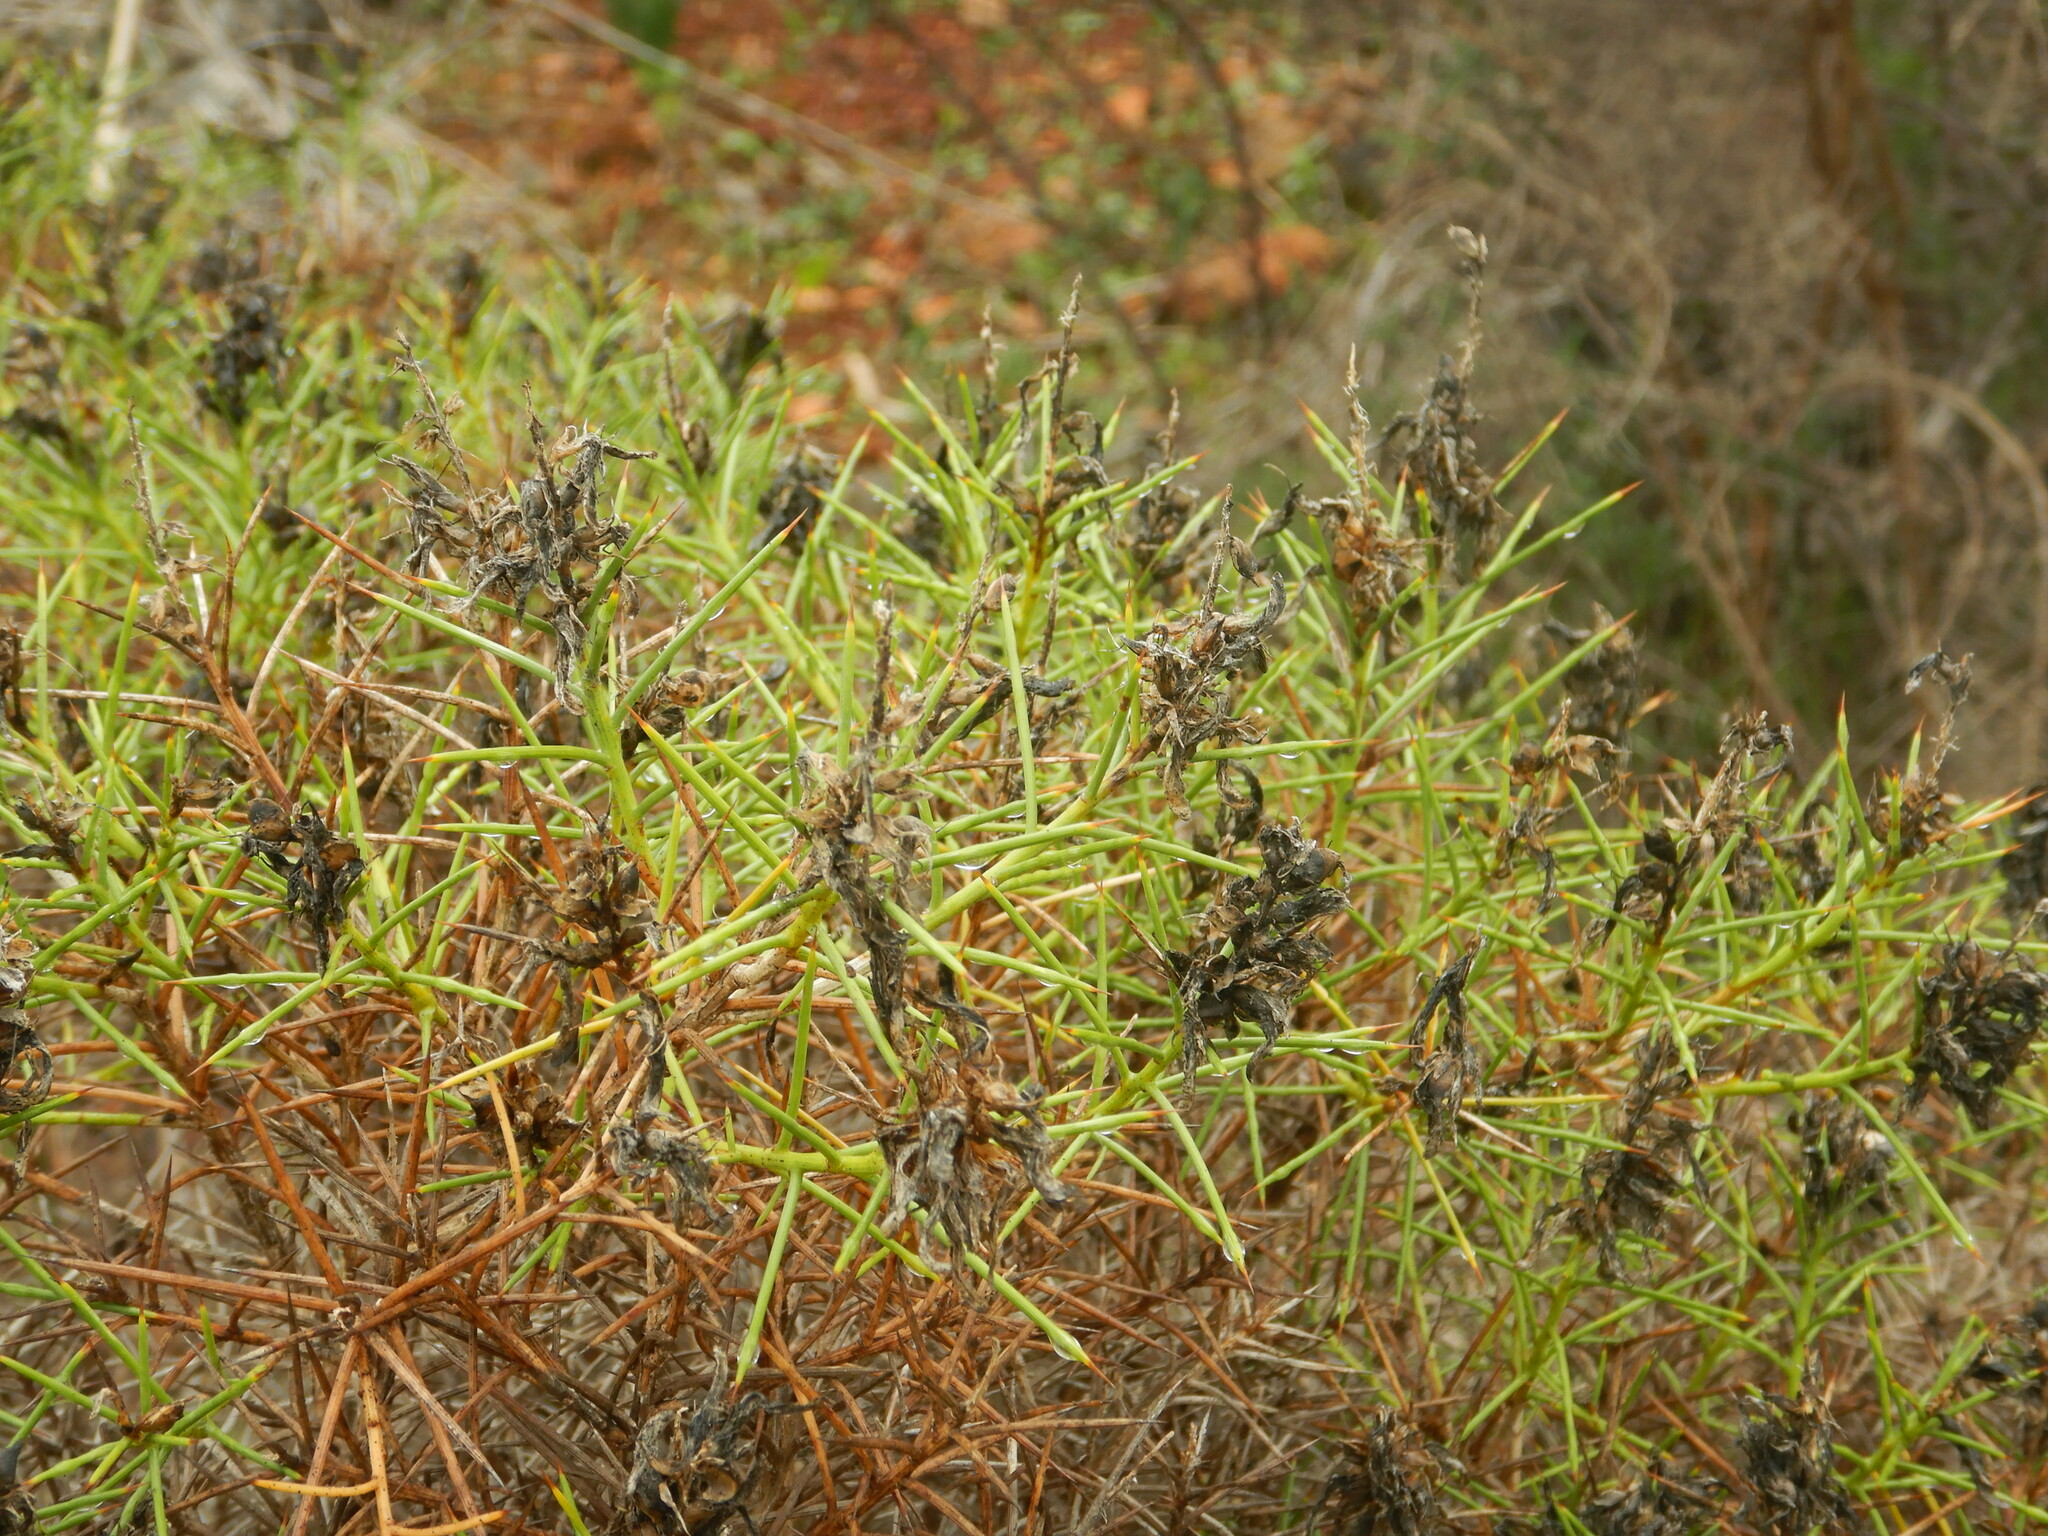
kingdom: Plantae
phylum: Tracheophyta
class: Magnoliopsida
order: Fabales
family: Fabaceae
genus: Genista
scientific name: Genista hirsuta
